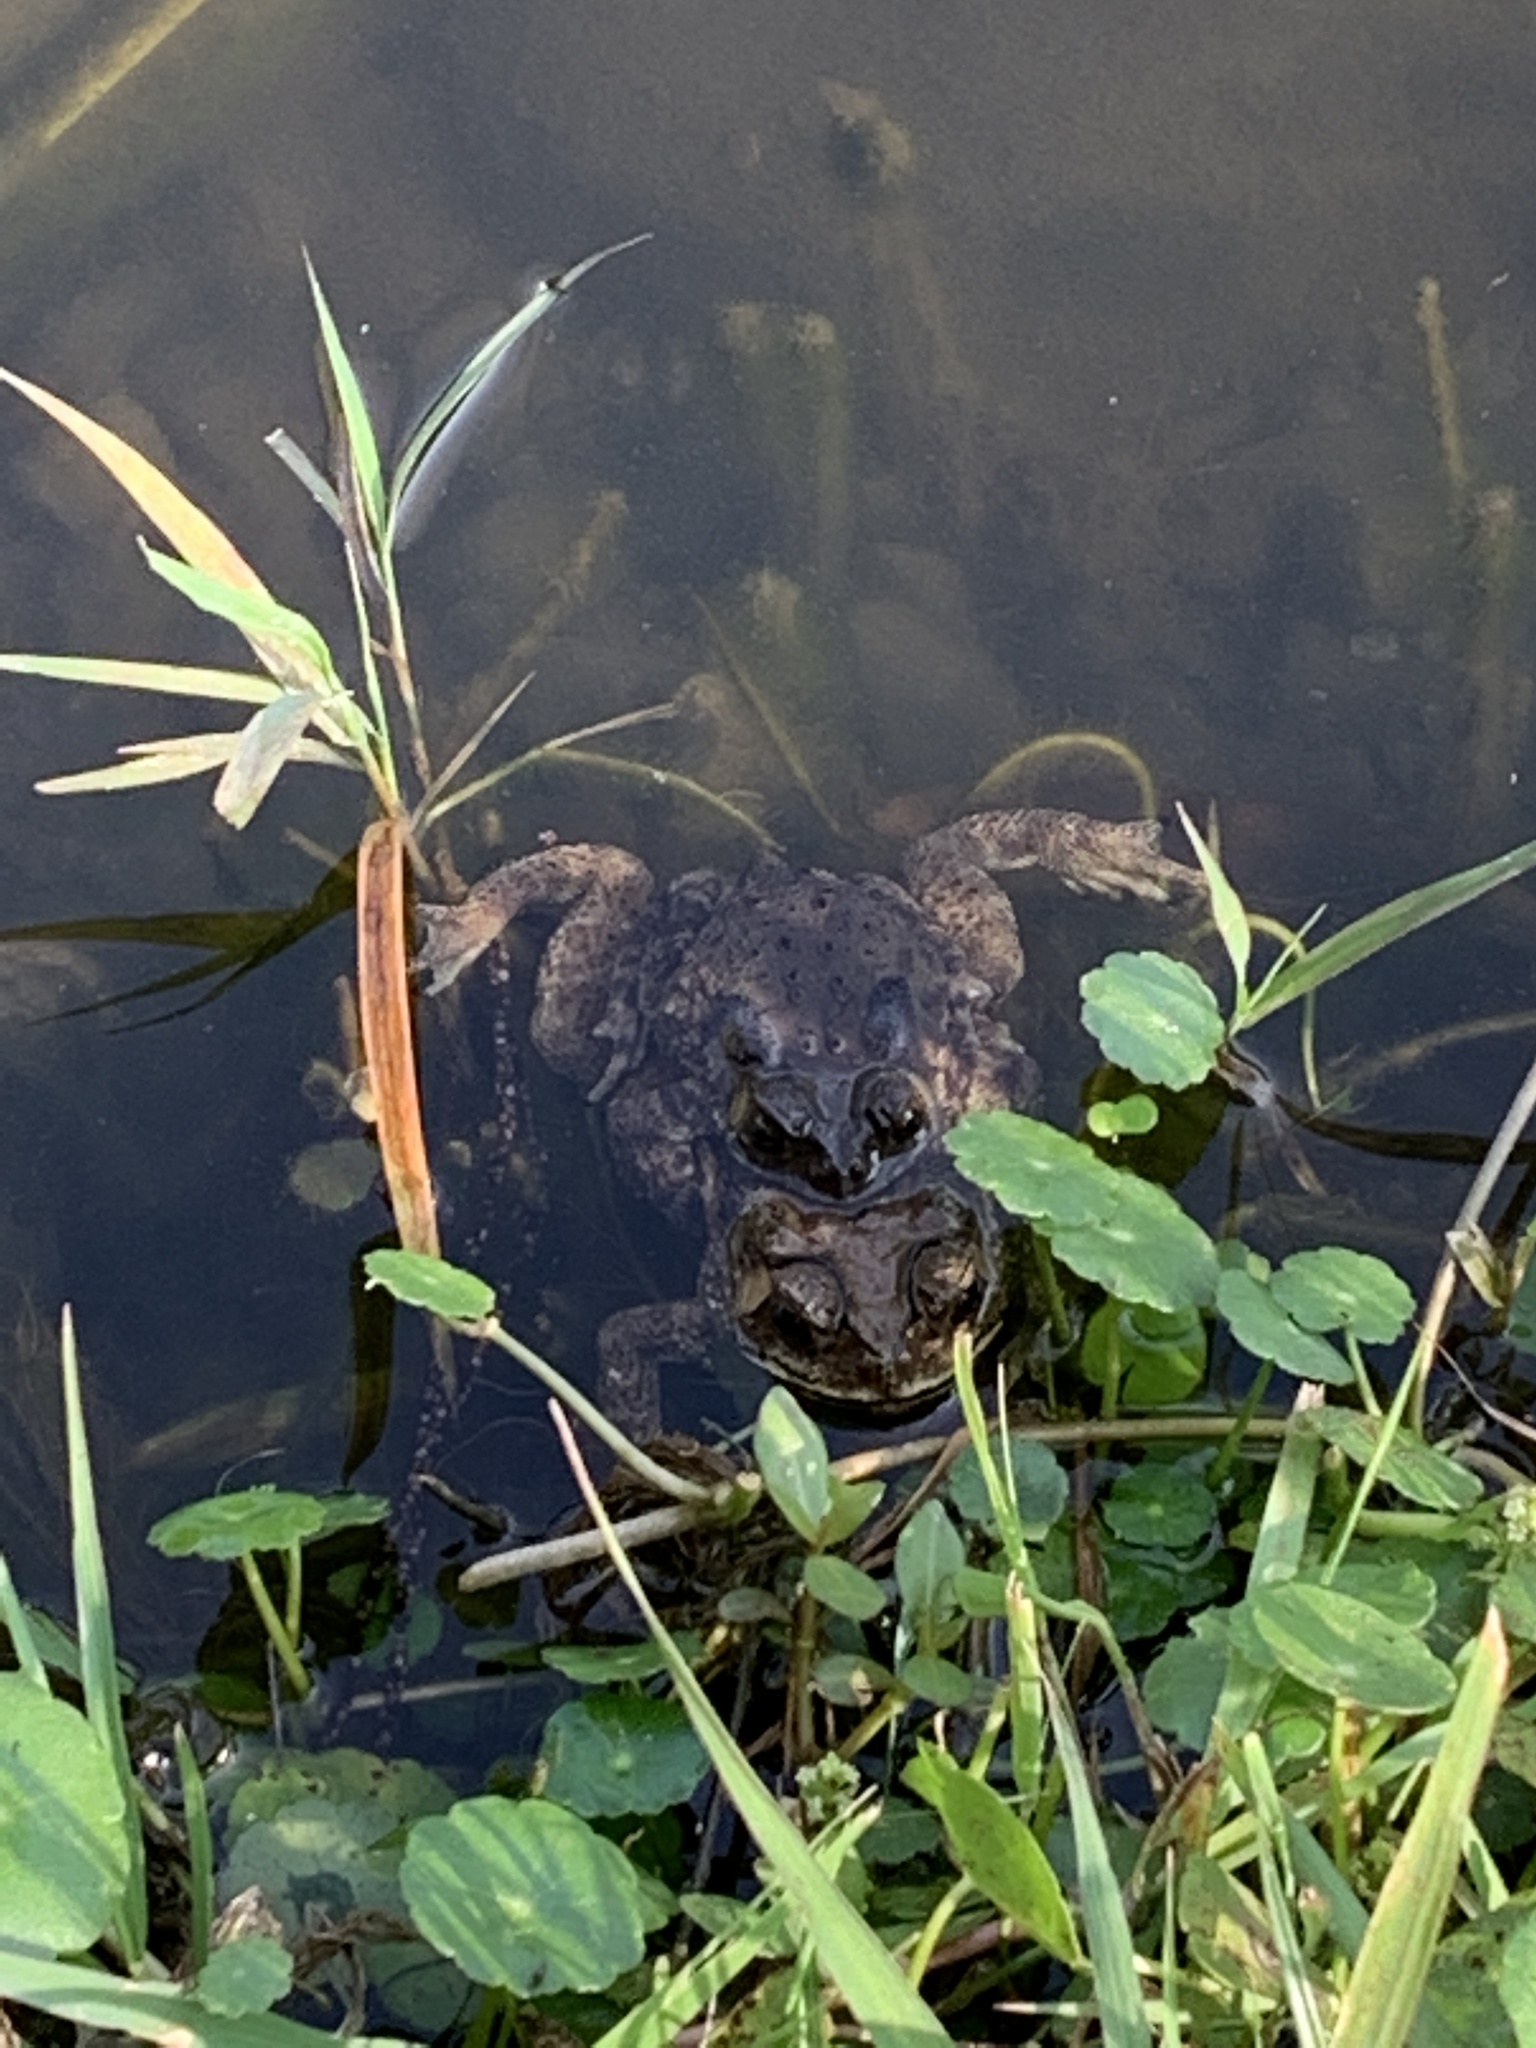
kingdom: Animalia
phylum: Chordata
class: Amphibia
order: Anura
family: Bufonidae
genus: Duttaphrynus
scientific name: Duttaphrynus melanostictus
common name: Common sunda toad
